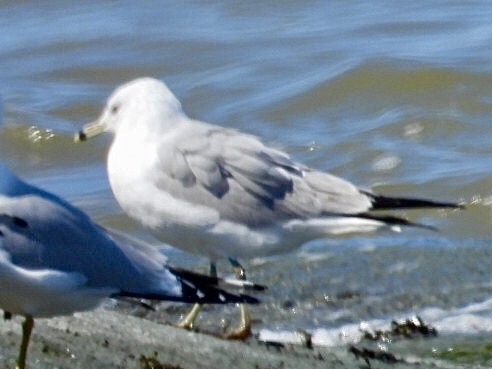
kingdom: Animalia
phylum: Chordata
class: Aves
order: Charadriiformes
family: Laridae
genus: Larus
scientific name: Larus delawarensis
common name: Ring-billed gull
